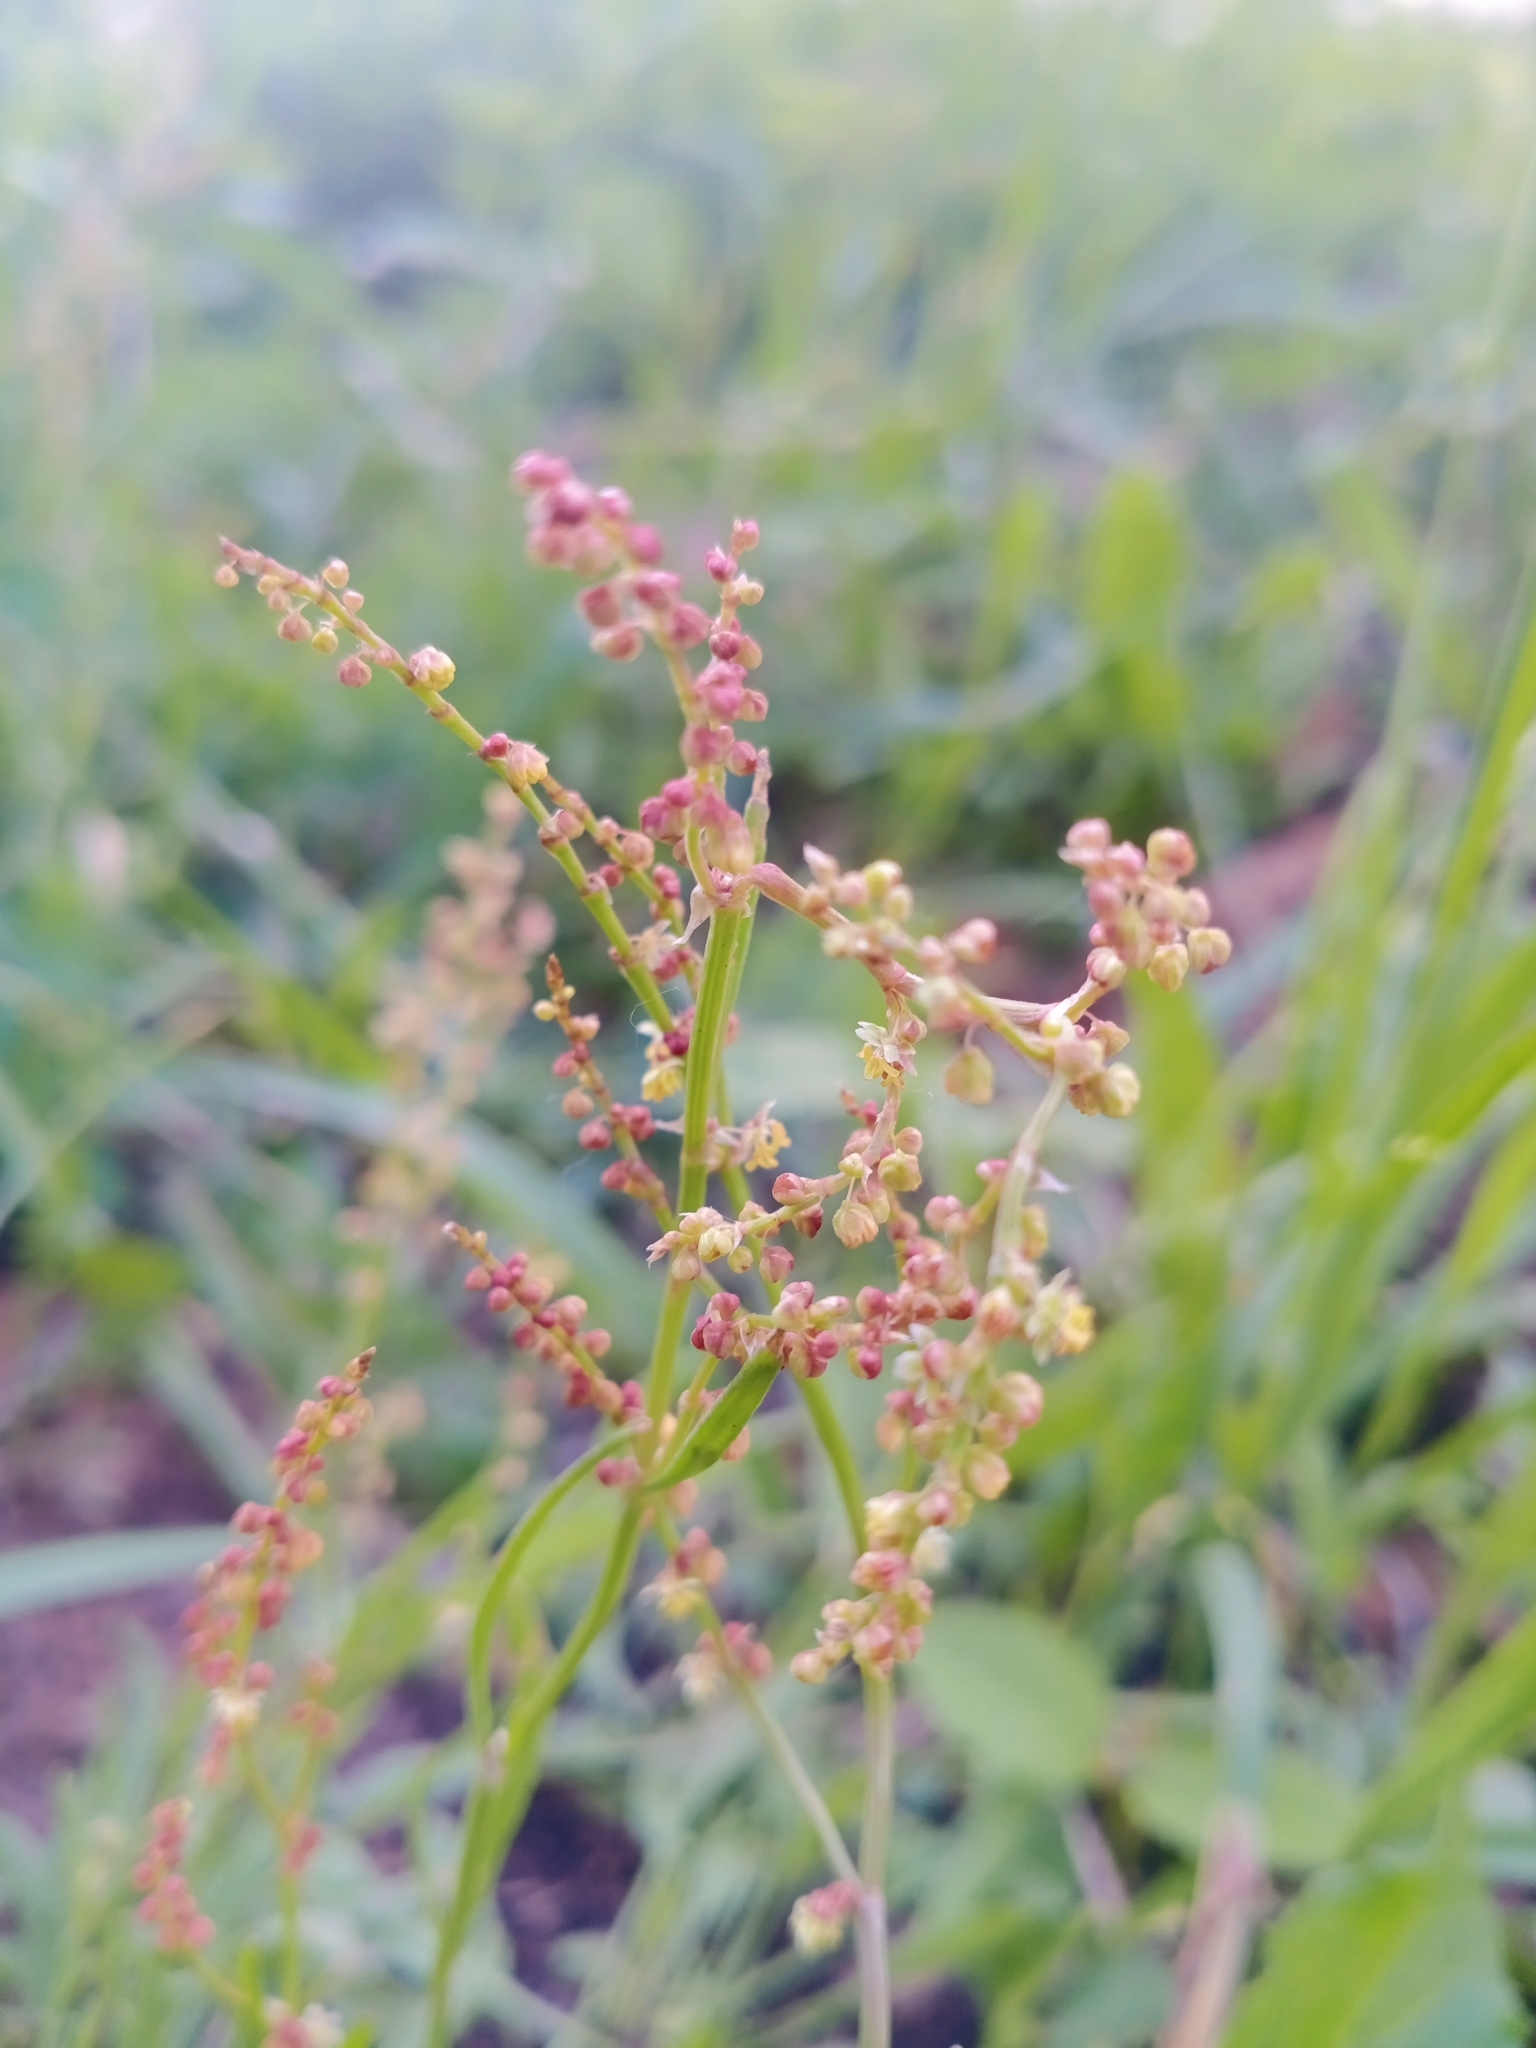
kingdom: Plantae
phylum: Tracheophyta
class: Magnoliopsida
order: Caryophyllales
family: Polygonaceae
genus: Rumex
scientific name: Rumex acetosella
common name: Common sheep sorrel
